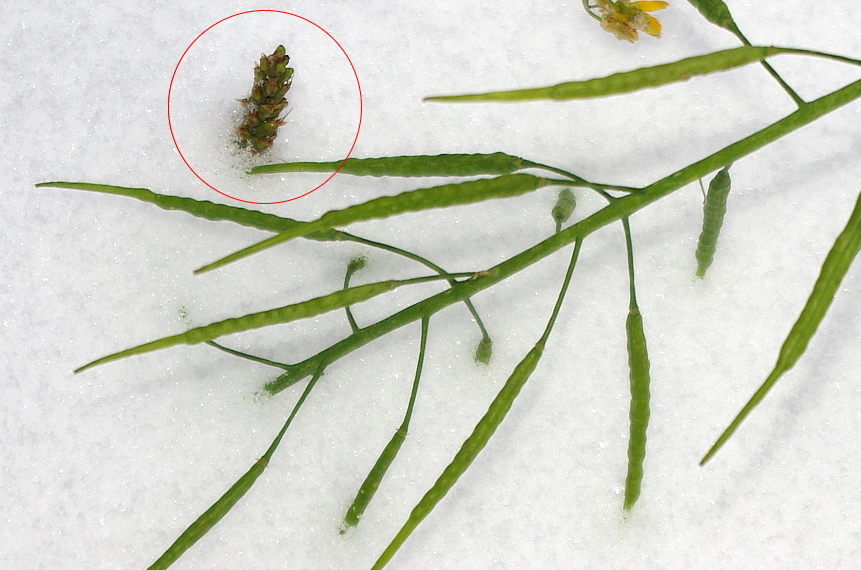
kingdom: Plantae
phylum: Tracheophyta
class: Magnoliopsida
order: Lamiales
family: Plantaginaceae
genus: Plantago
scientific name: Plantago major
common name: Common plantain
